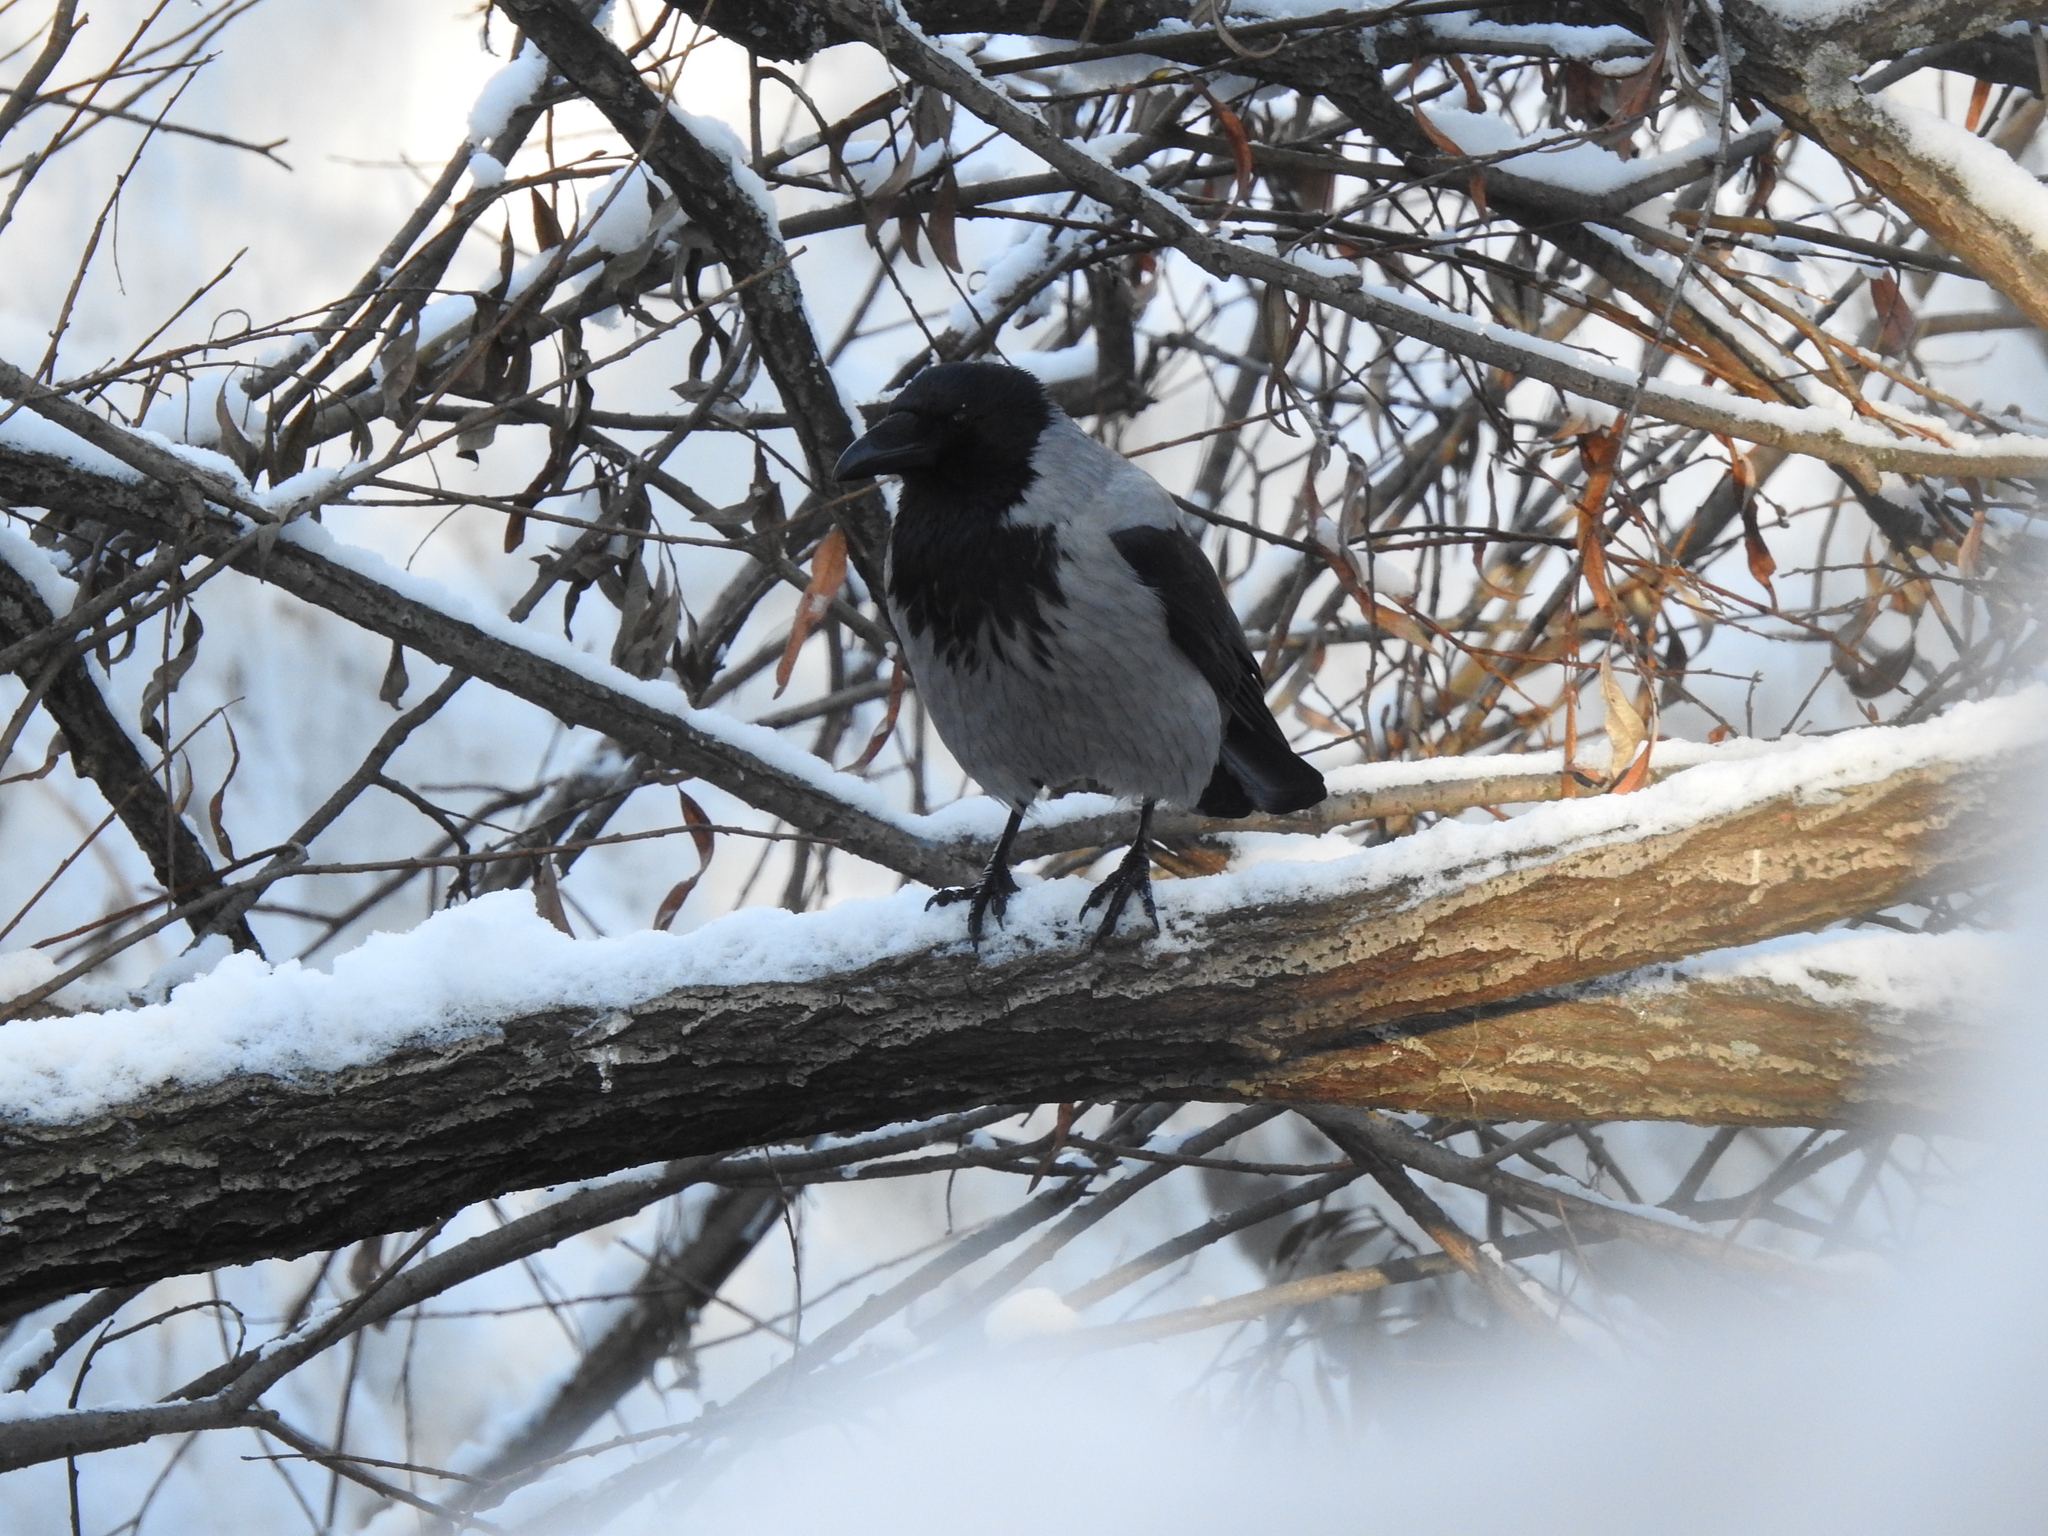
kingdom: Animalia
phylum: Chordata
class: Aves
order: Passeriformes
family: Corvidae
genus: Corvus
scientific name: Corvus cornix
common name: Hooded crow
